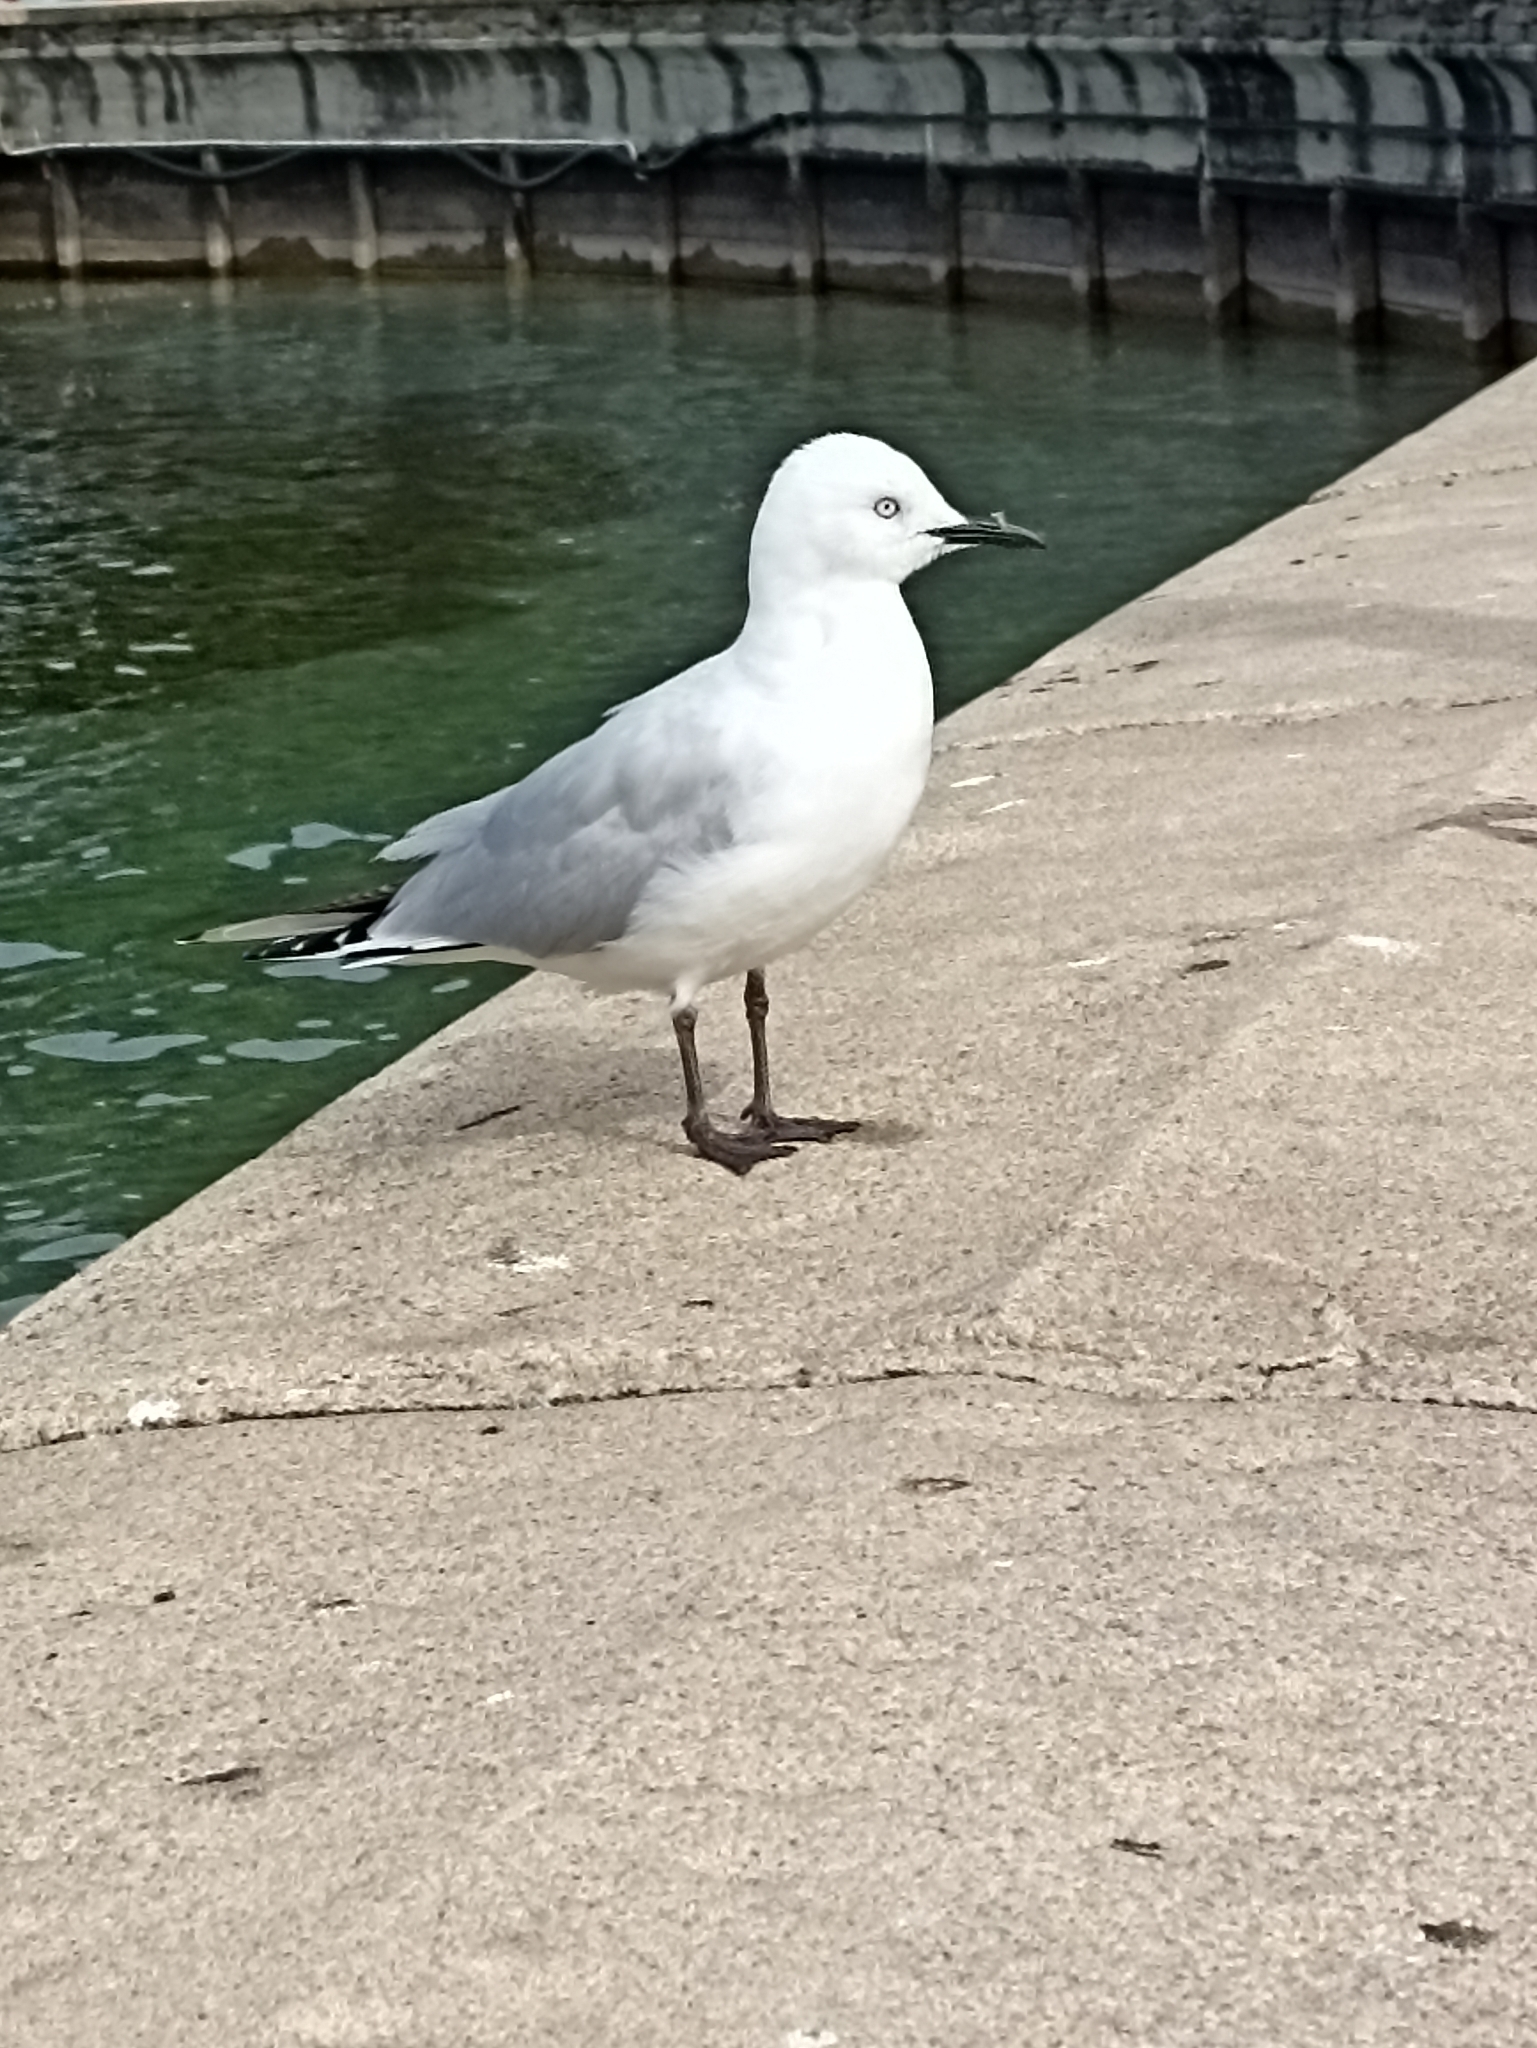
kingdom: Animalia
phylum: Chordata
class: Aves
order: Charadriiformes
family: Laridae
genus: Chroicocephalus
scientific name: Chroicocephalus bulleri
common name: Black-billed gull
